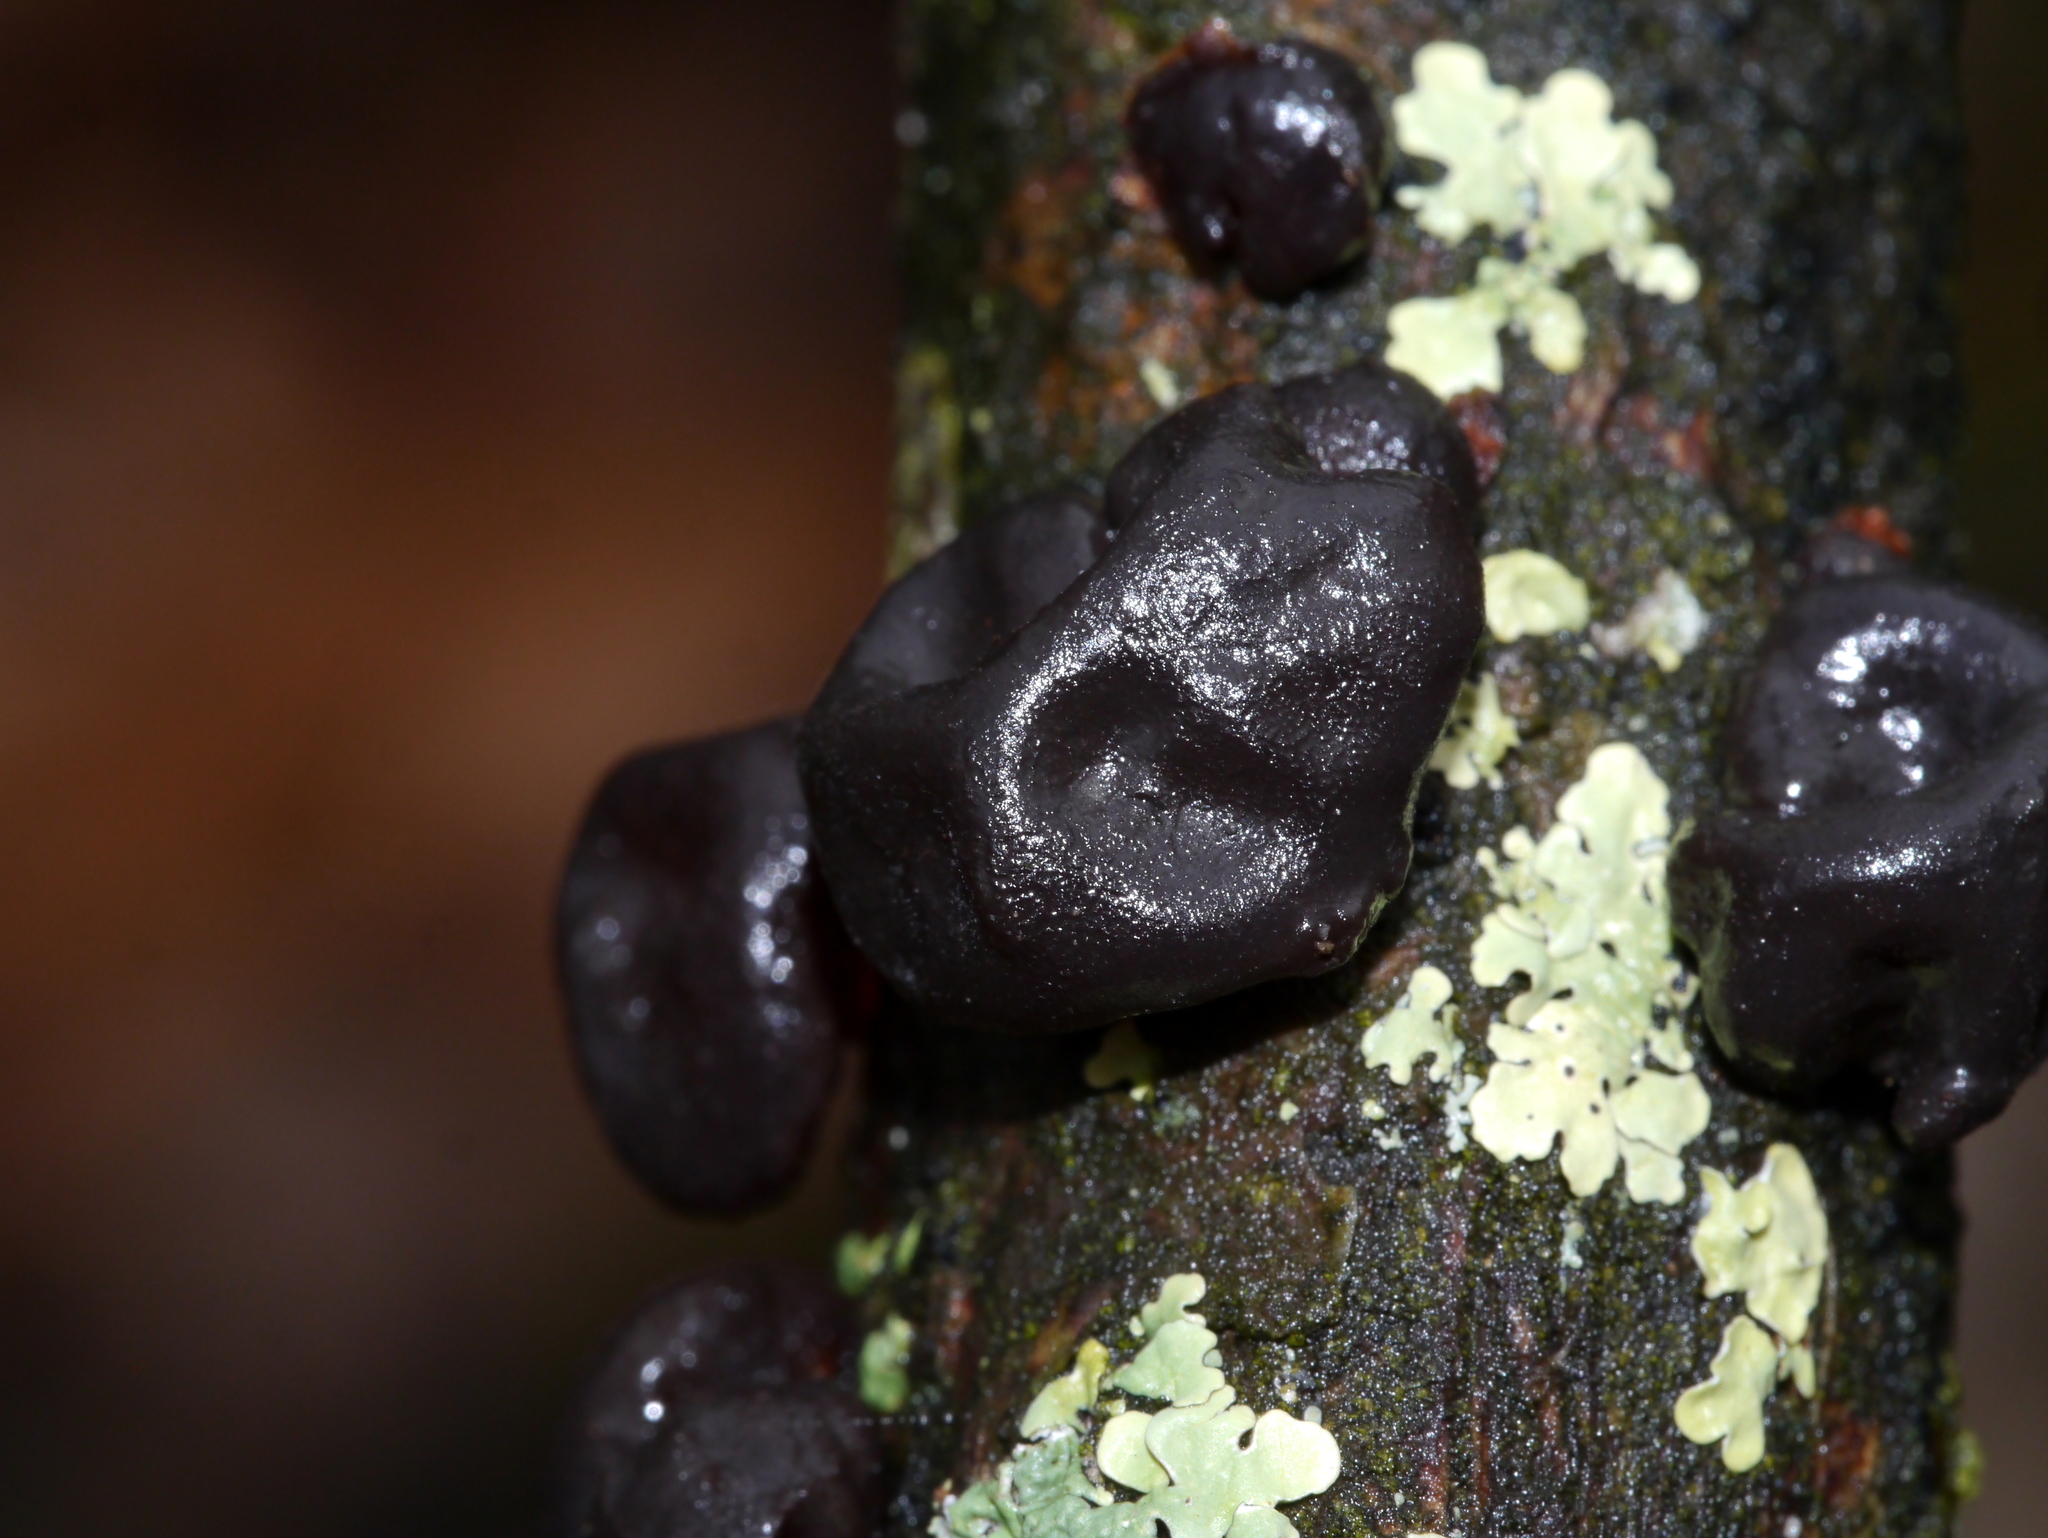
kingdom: Fungi
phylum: Basidiomycota
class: Agaricomycetes
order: Auriculariales
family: Auriculariaceae
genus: Exidia
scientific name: Exidia
